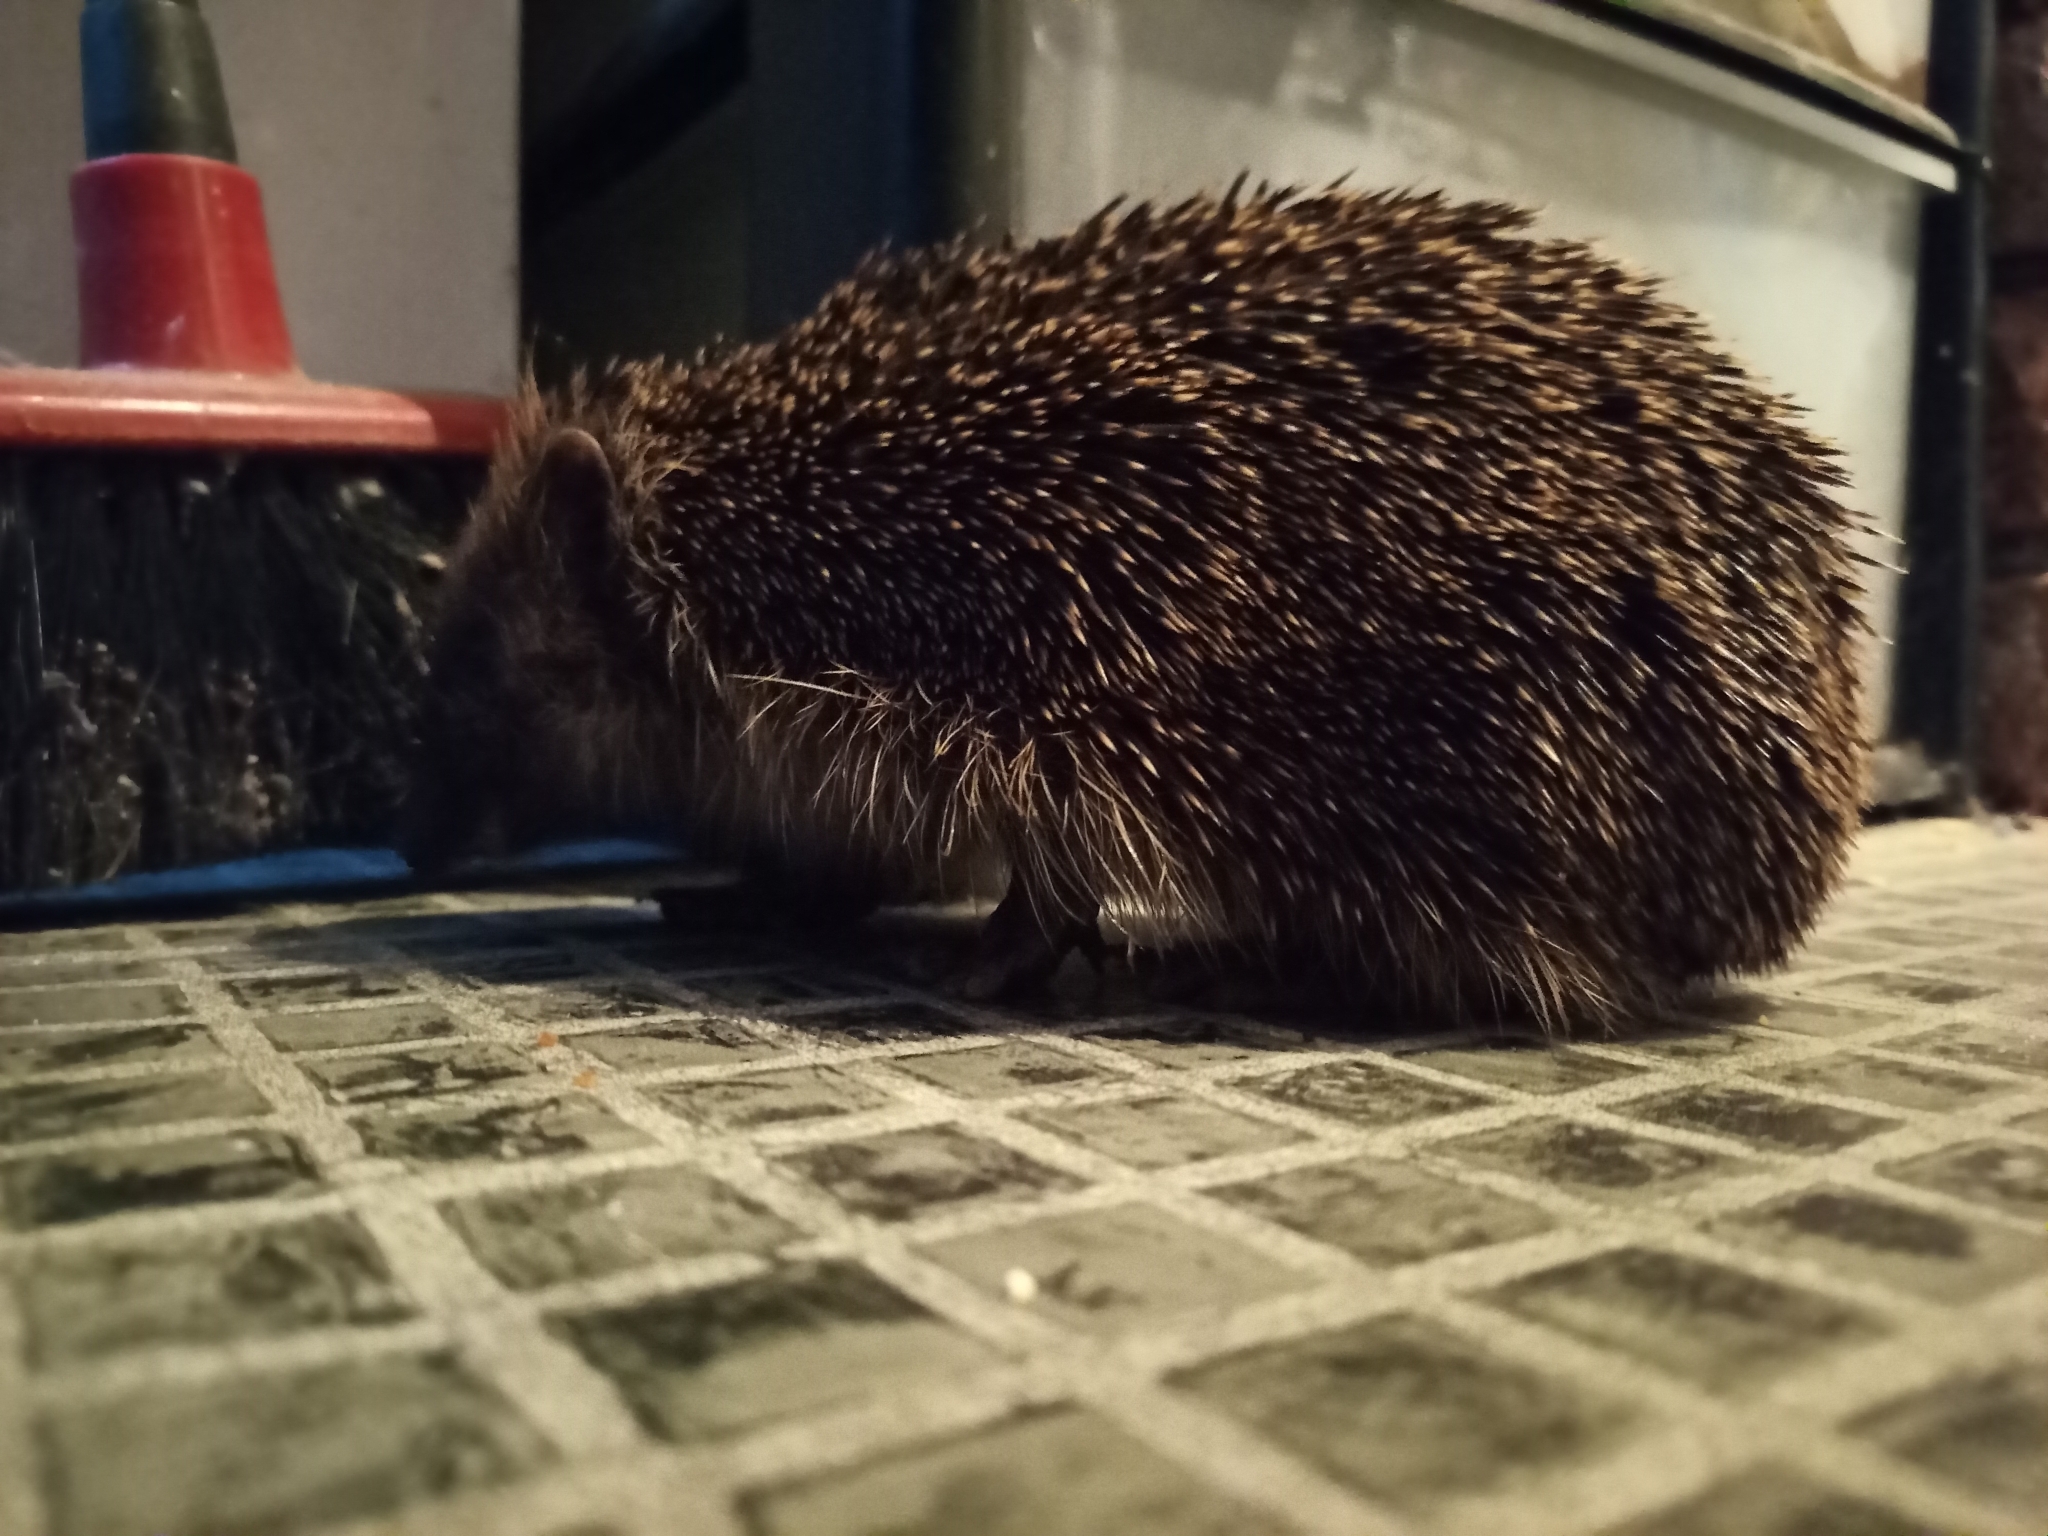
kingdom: Animalia
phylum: Chordata
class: Mammalia
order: Erinaceomorpha
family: Erinaceidae
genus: Erinaceus
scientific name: Erinaceus europaeus
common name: West european hedgehog
